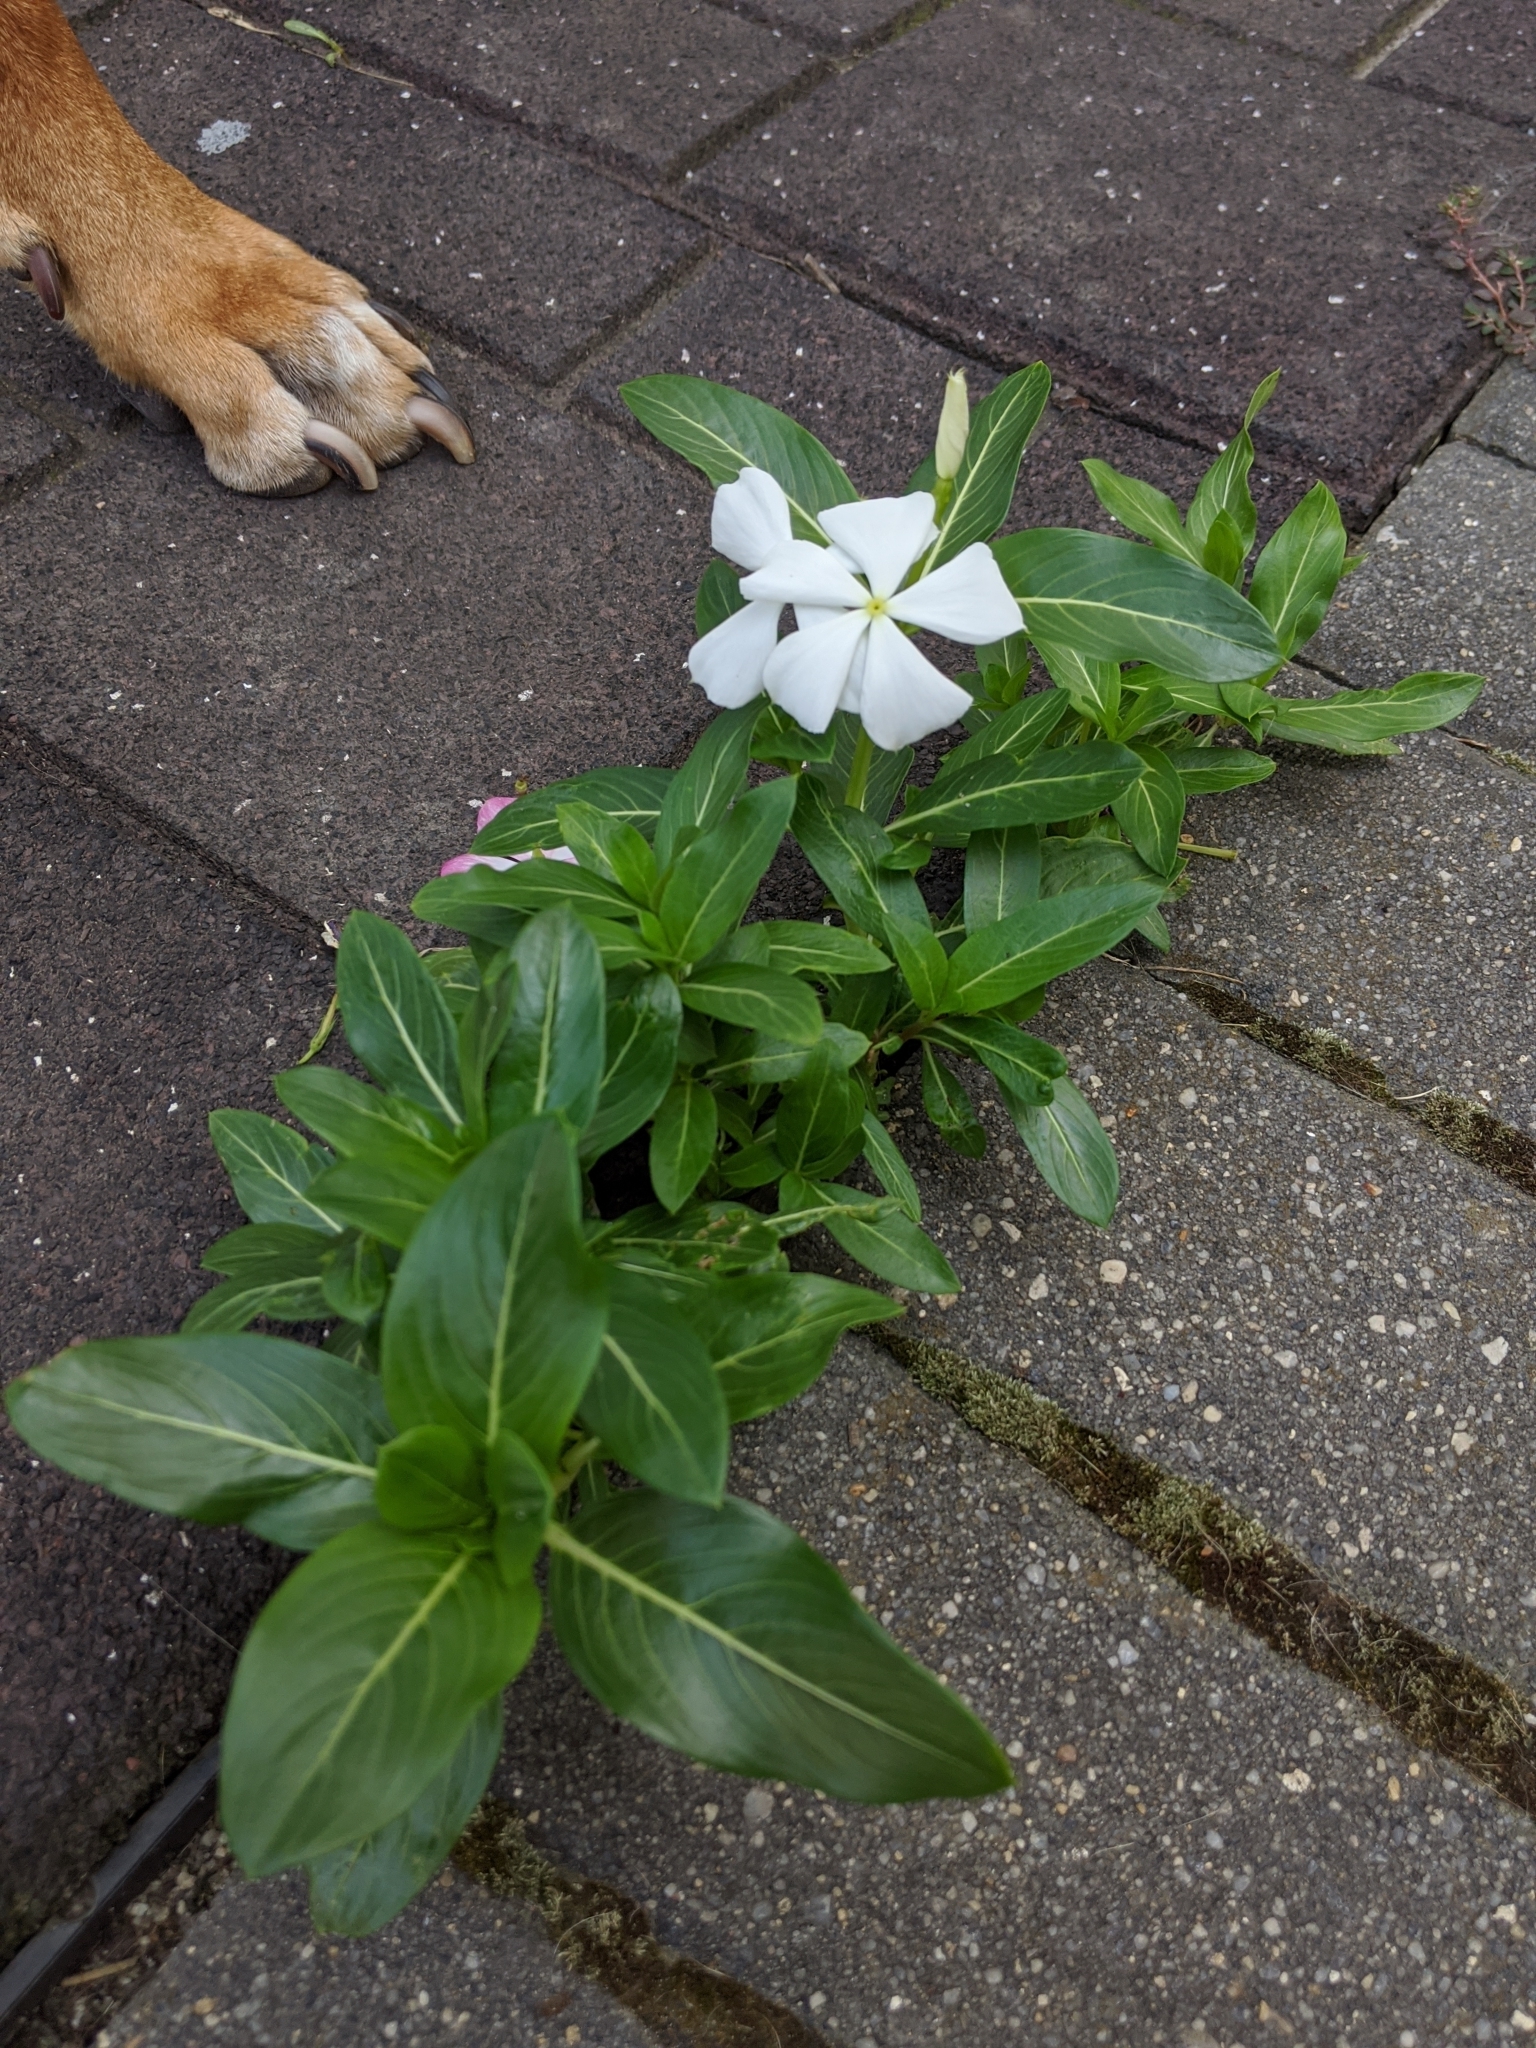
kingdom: Plantae
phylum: Tracheophyta
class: Magnoliopsida
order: Gentianales
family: Apocynaceae
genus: Catharanthus
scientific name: Catharanthus roseus
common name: Madagascar periwinkle
